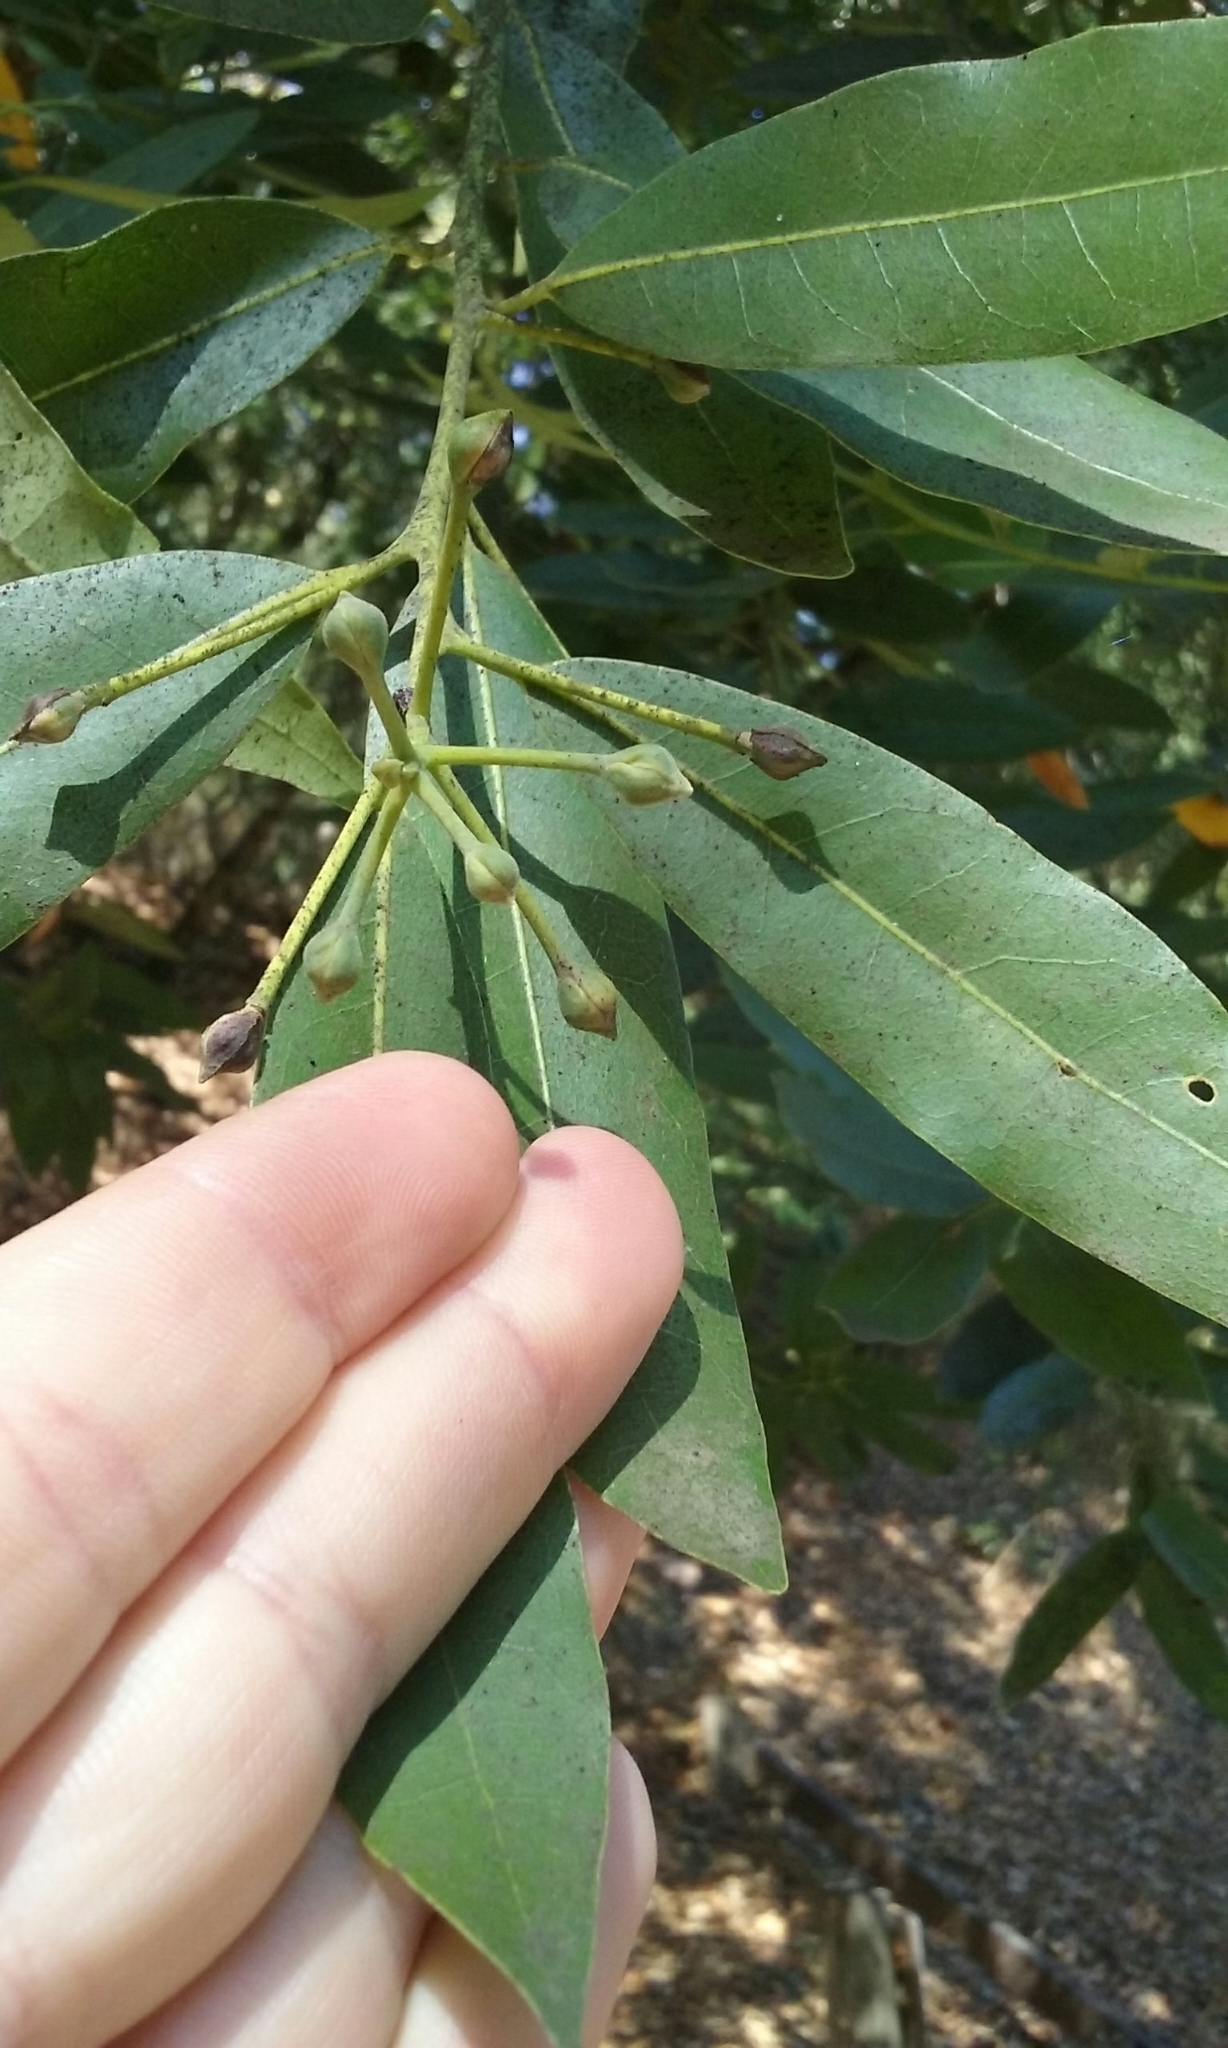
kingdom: Plantae
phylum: Tracheophyta
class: Magnoliopsida
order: Laurales
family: Lauraceae
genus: Umbellularia
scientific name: Umbellularia californica
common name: California bay
